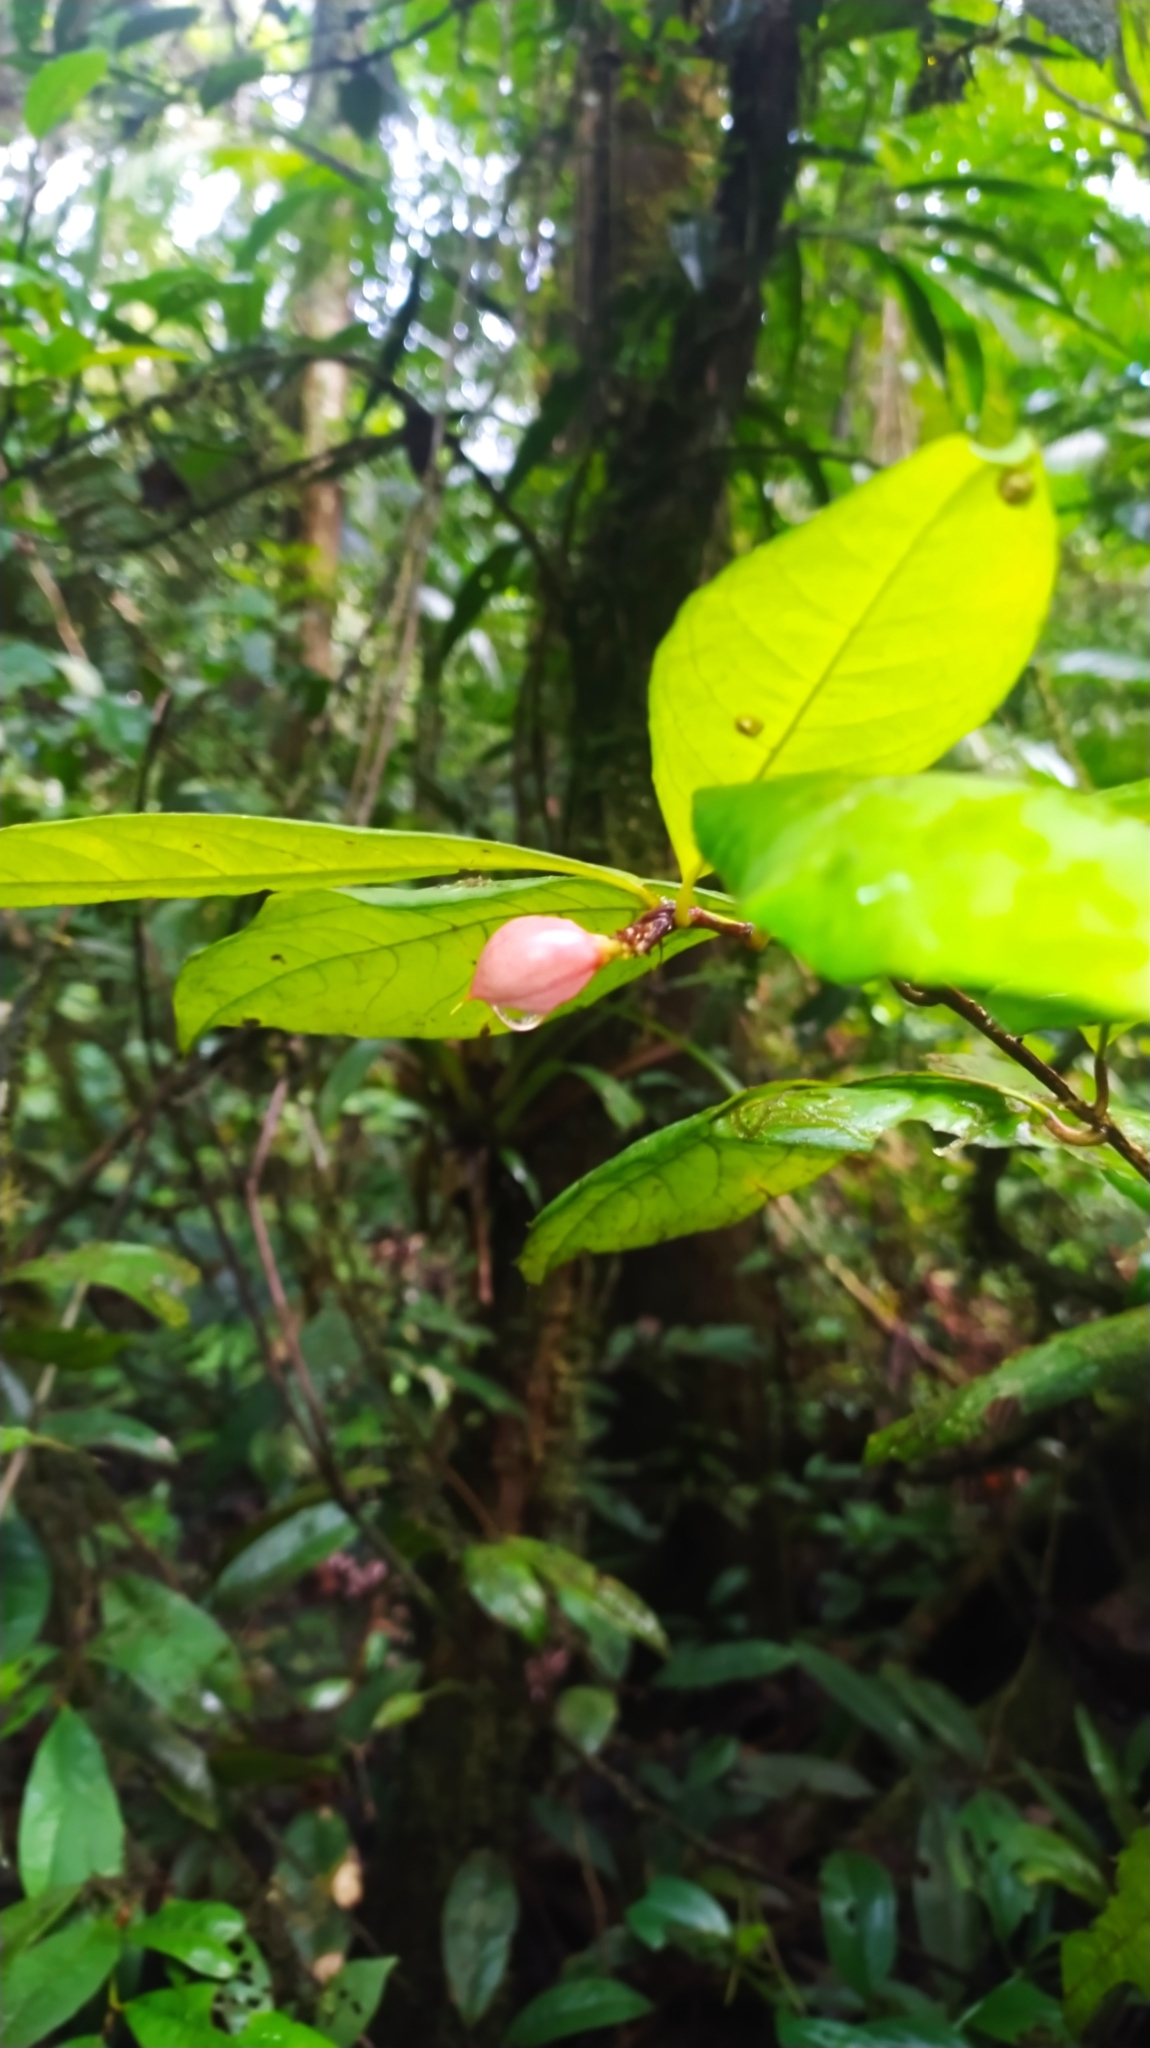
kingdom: Plantae
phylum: Tracheophyta
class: Magnoliopsida
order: Malpighiales
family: Violaceae
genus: Paypayrola
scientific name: Paypayrola
